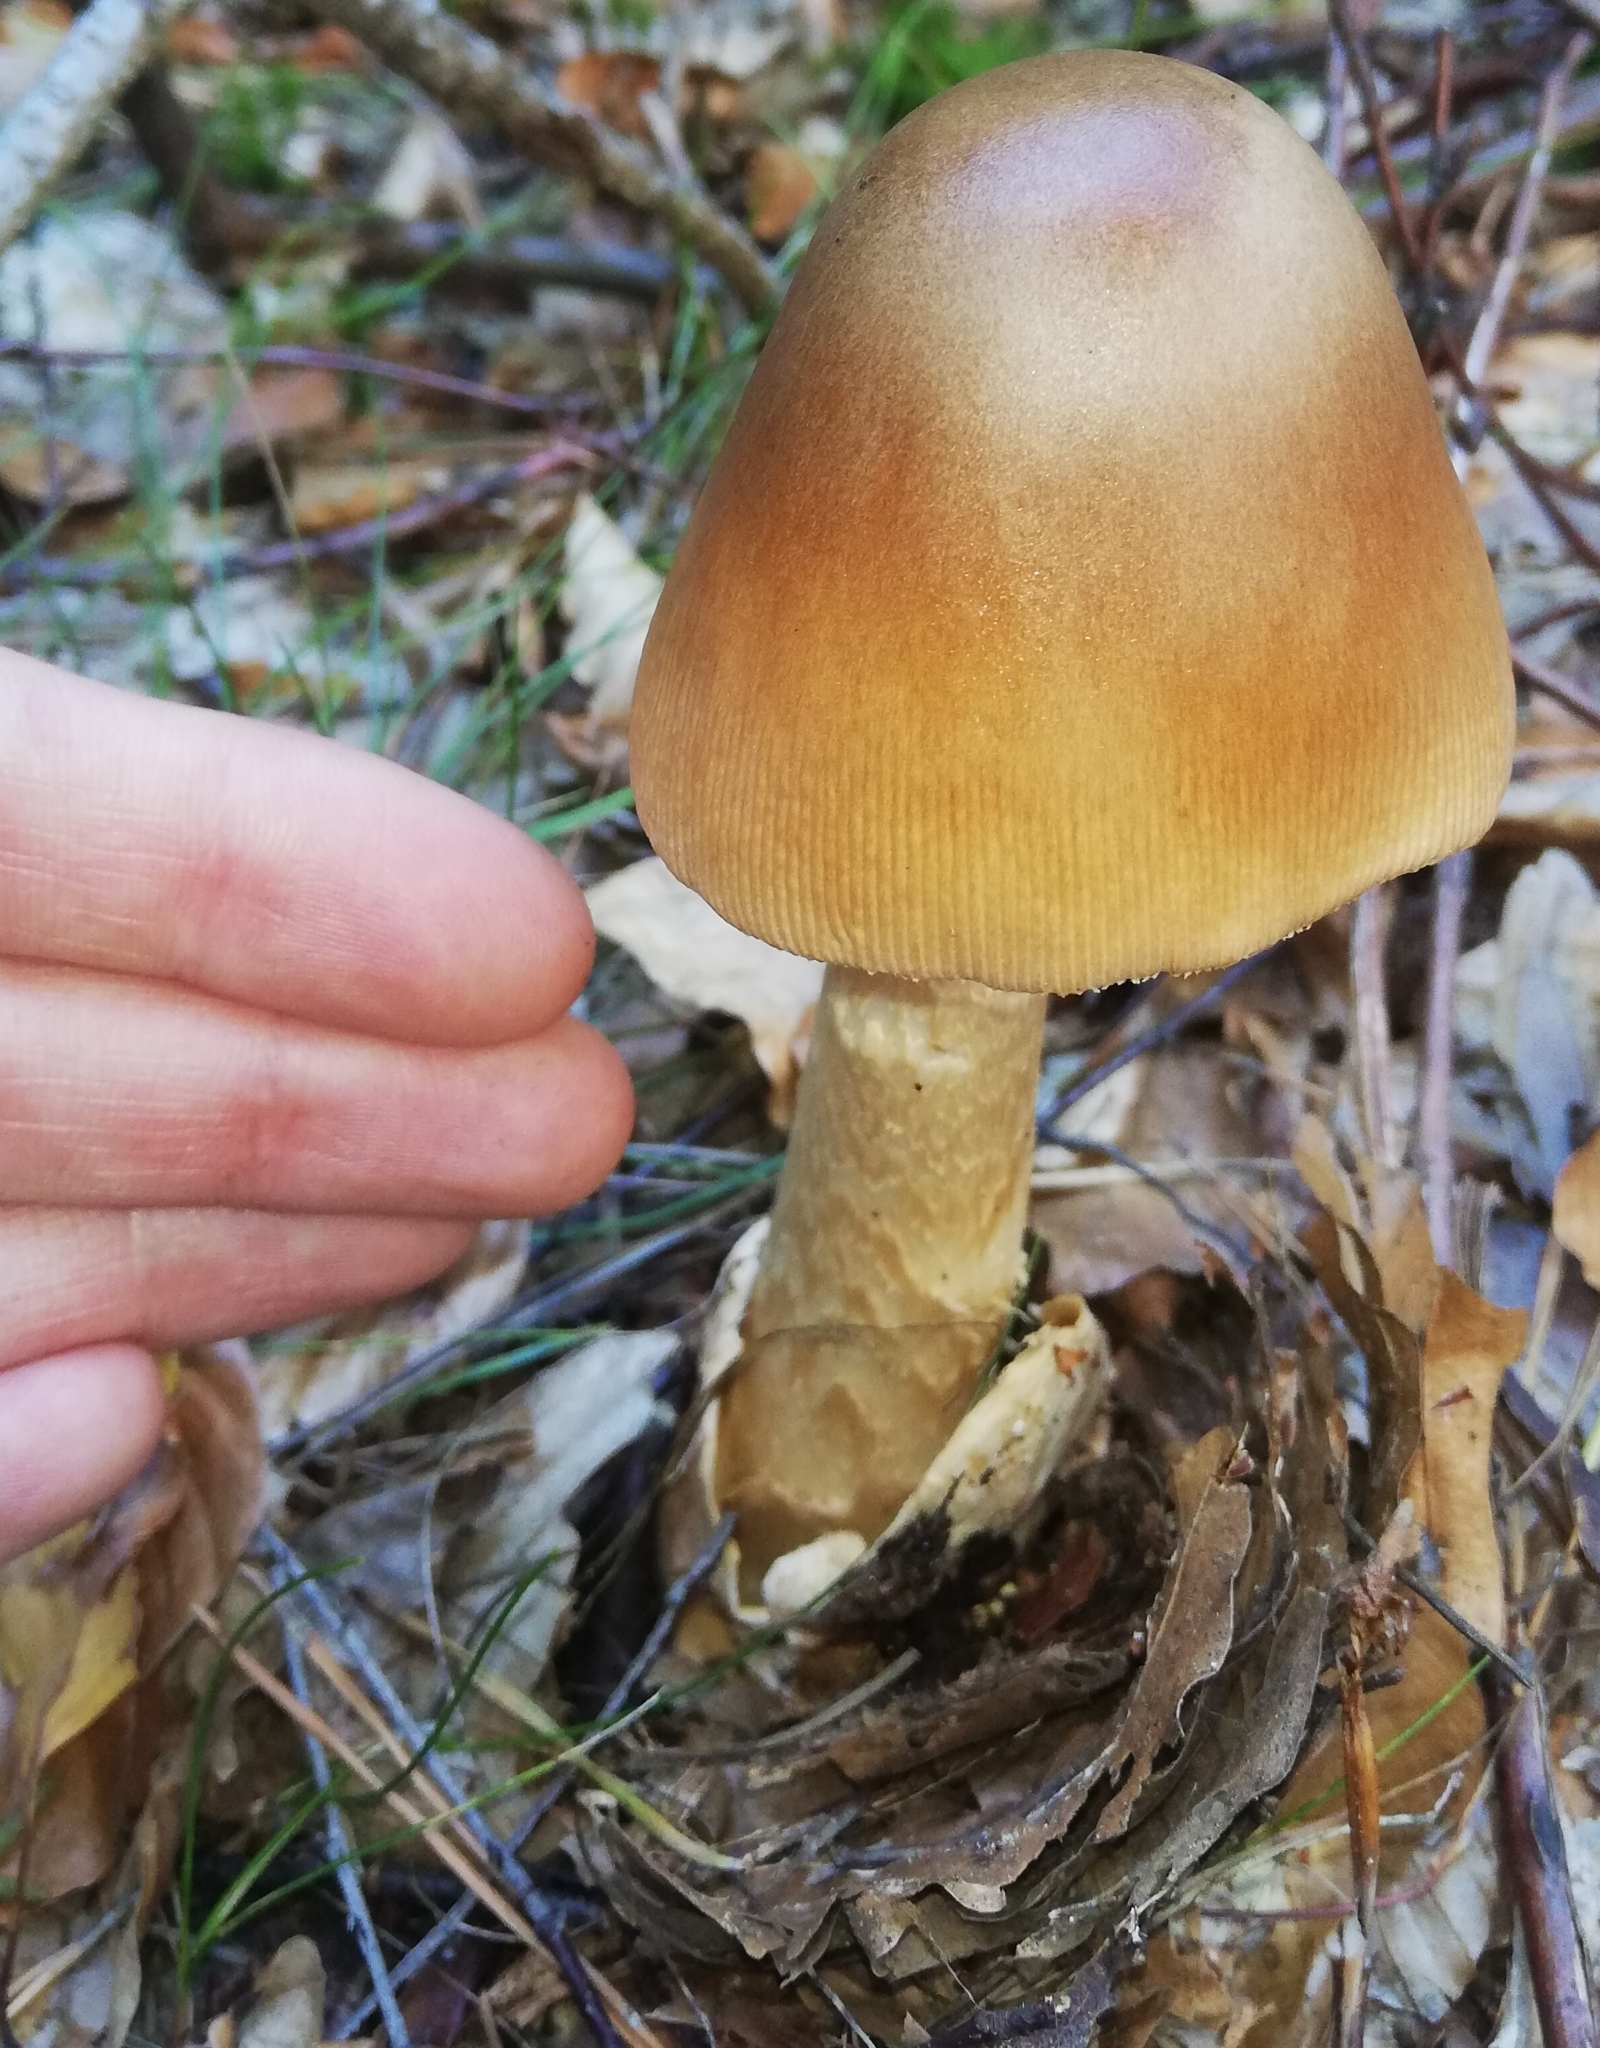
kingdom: Fungi
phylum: Basidiomycota
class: Agaricomycetes
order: Agaricales
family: Amanitaceae
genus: Amanita
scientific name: Amanita crocea
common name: Orange grisette
